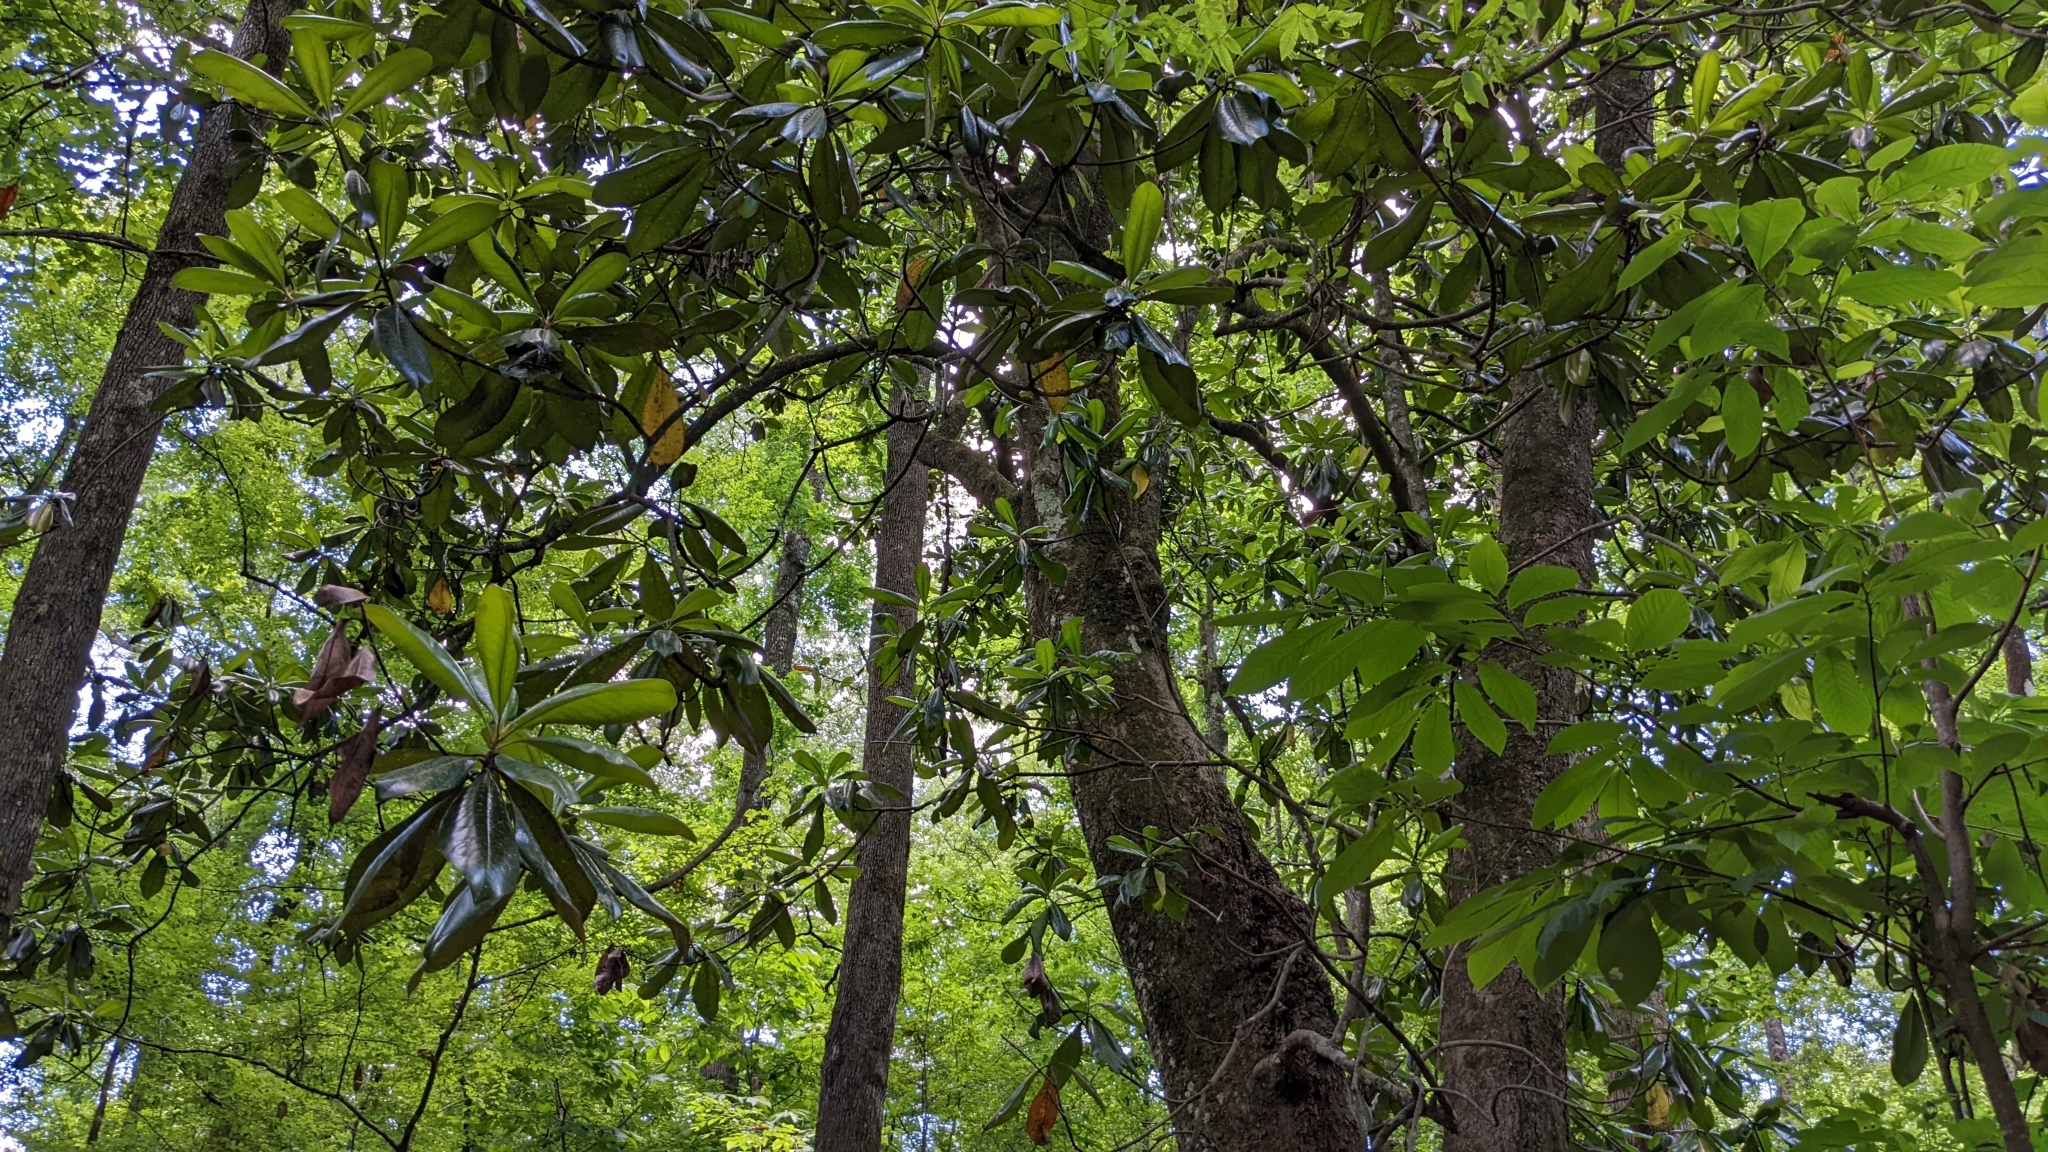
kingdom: Plantae
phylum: Tracheophyta
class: Magnoliopsida
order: Magnoliales
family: Magnoliaceae
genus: Magnolia
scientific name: Magnolia grandiflora
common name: Southern magnolia
